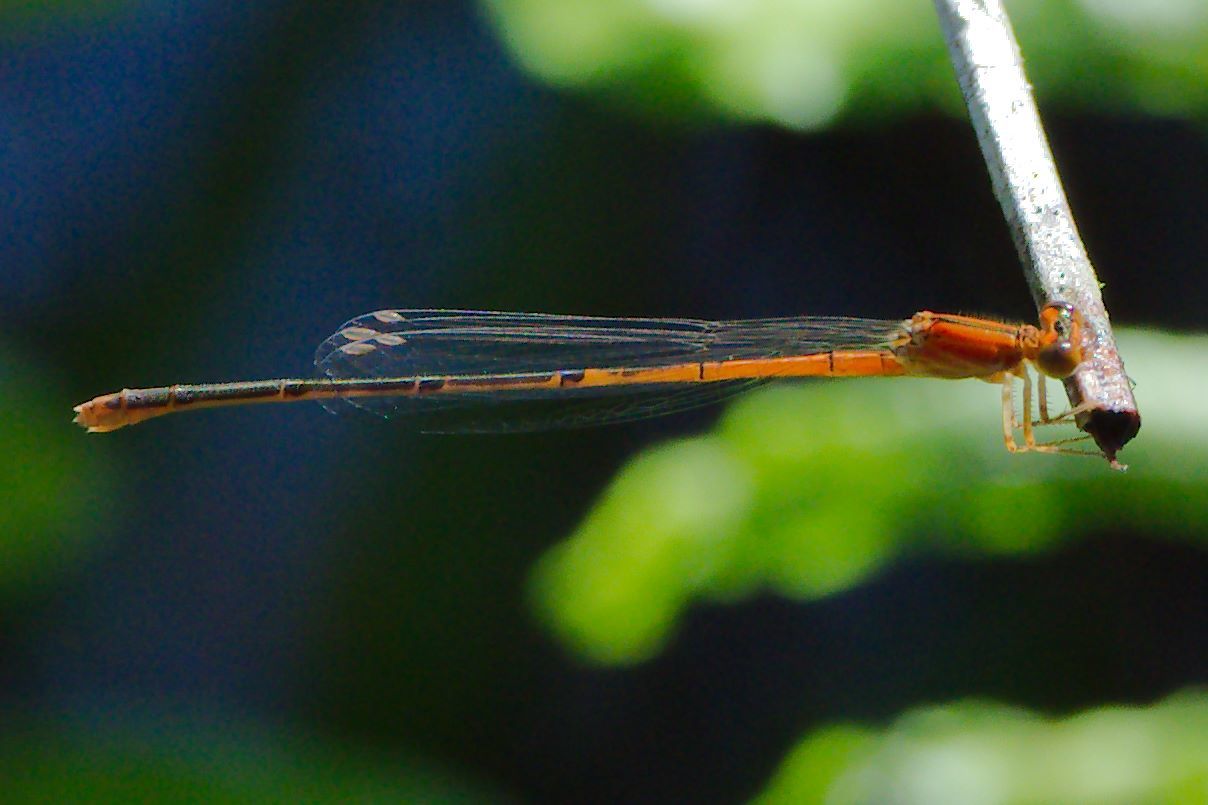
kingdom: Animalia
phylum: Arthropoda
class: Insecta
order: Odonata
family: Coenagrionidae
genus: Ischnura
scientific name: Ischnura prognata
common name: Furtive forktail
